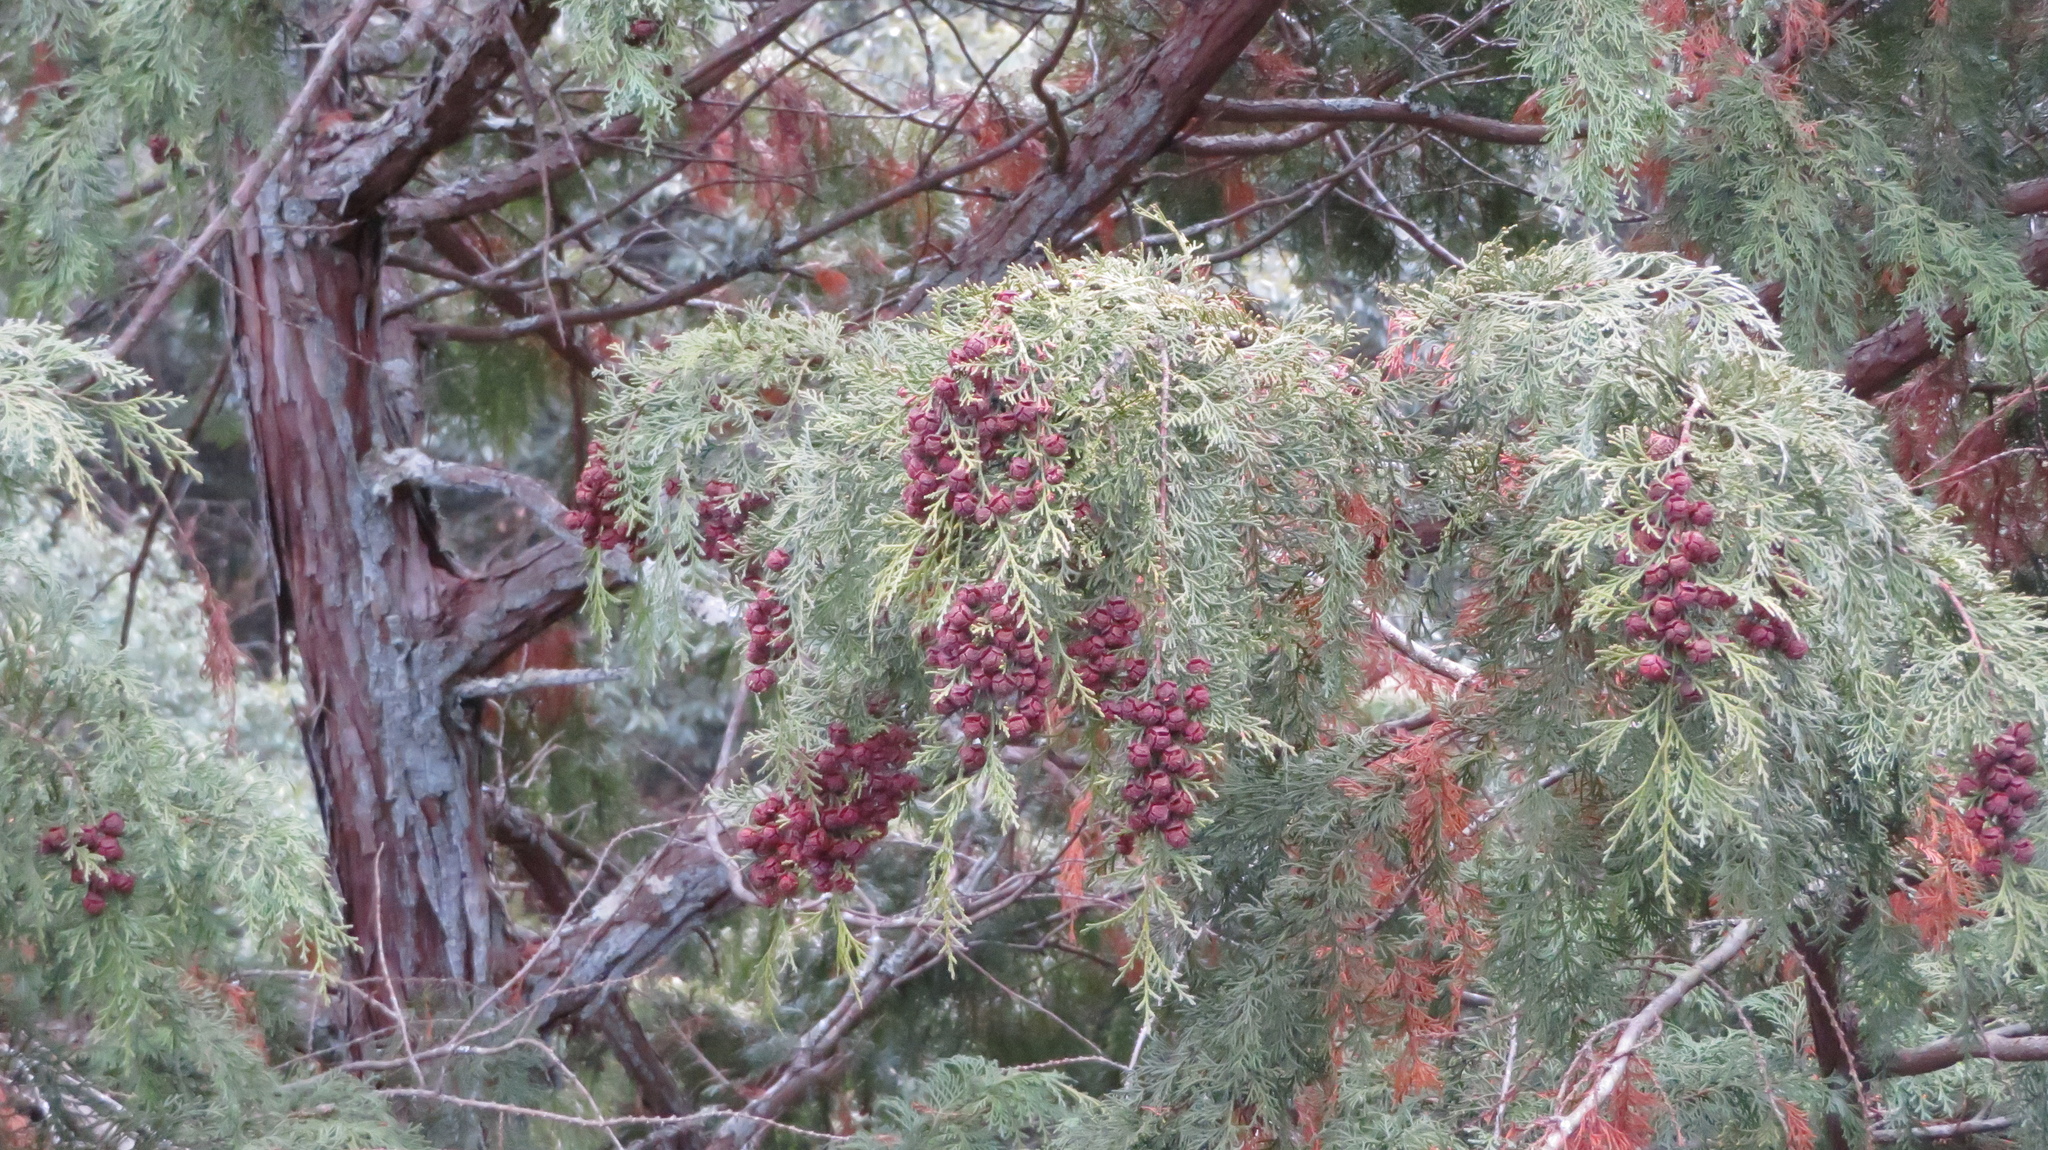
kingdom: Plantae
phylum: Tracheophyta
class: Pinopsida
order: Pinales
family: Cupressaceae
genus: Chamaecyparis
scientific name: Chamaecyparis obtusa
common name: Hinoki false cypress
